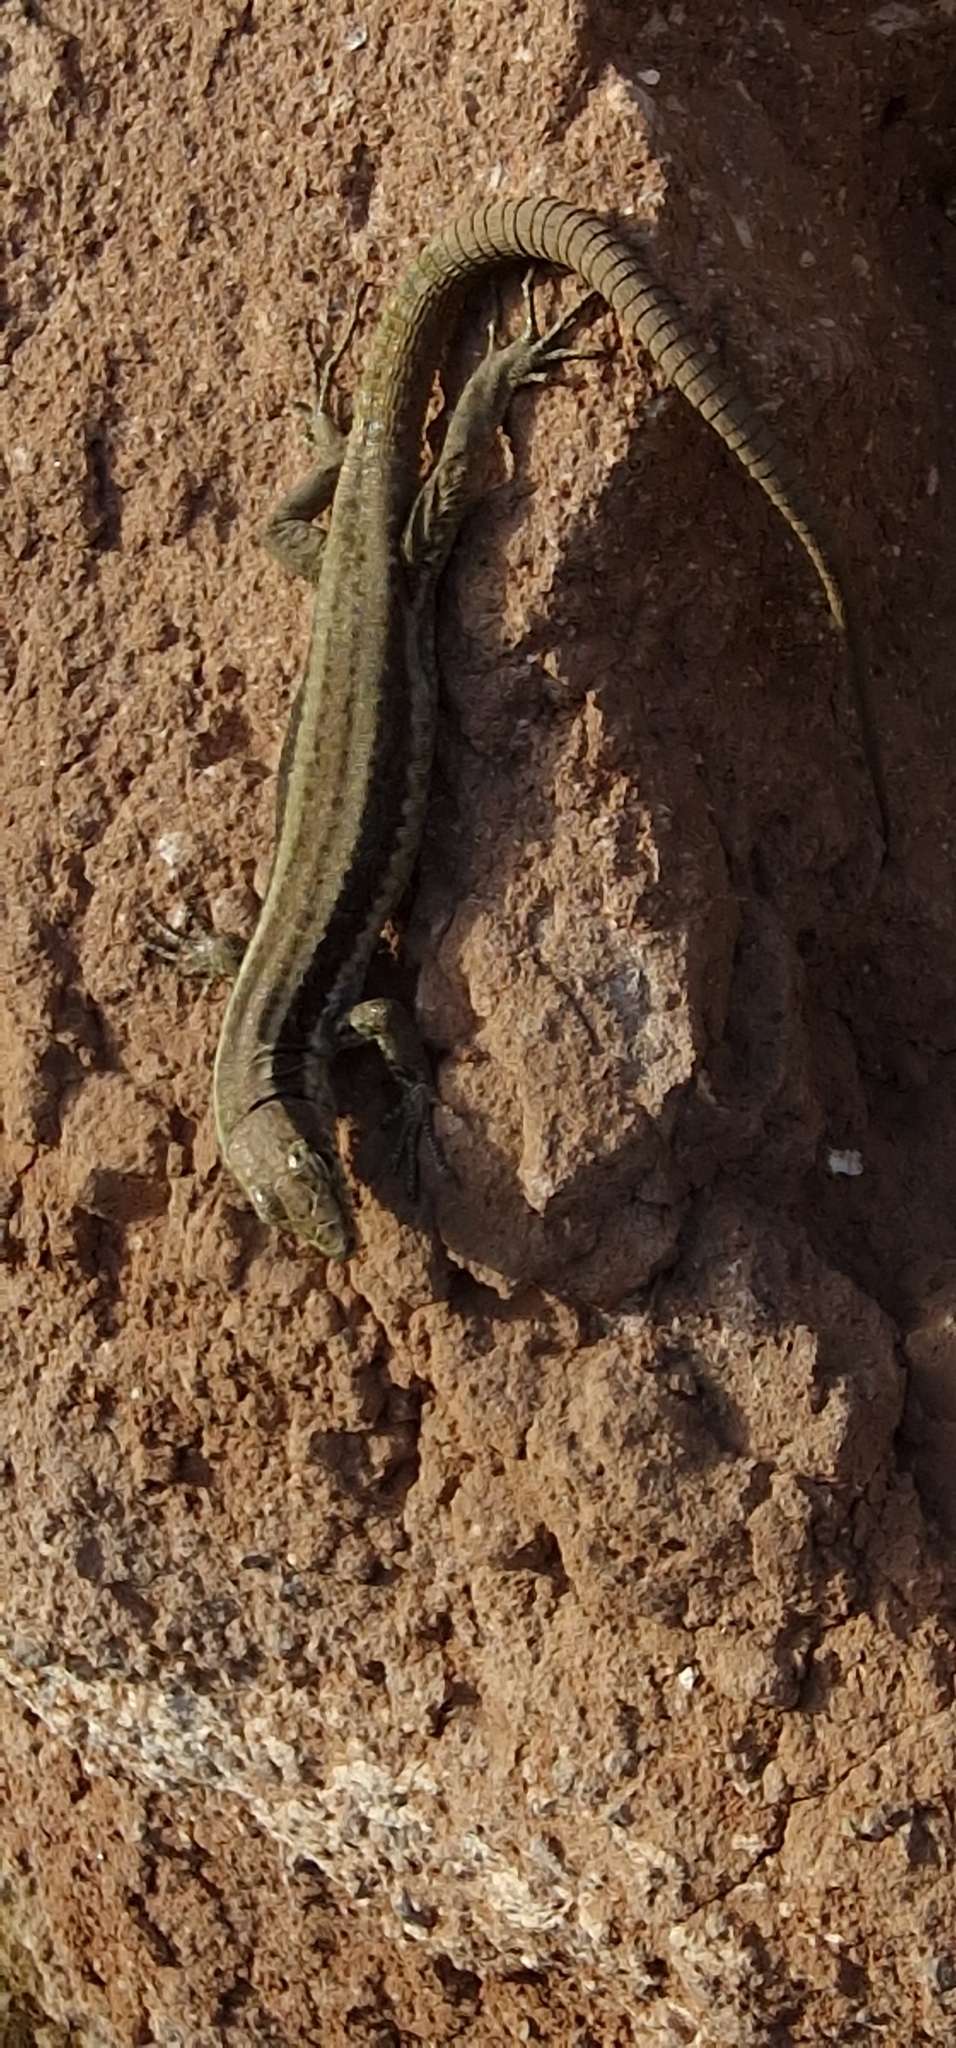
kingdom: Animalia
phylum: Chordata
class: Squamata
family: Lacertidae
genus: Teira
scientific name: Teira dugesii
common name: Madeira lizard
